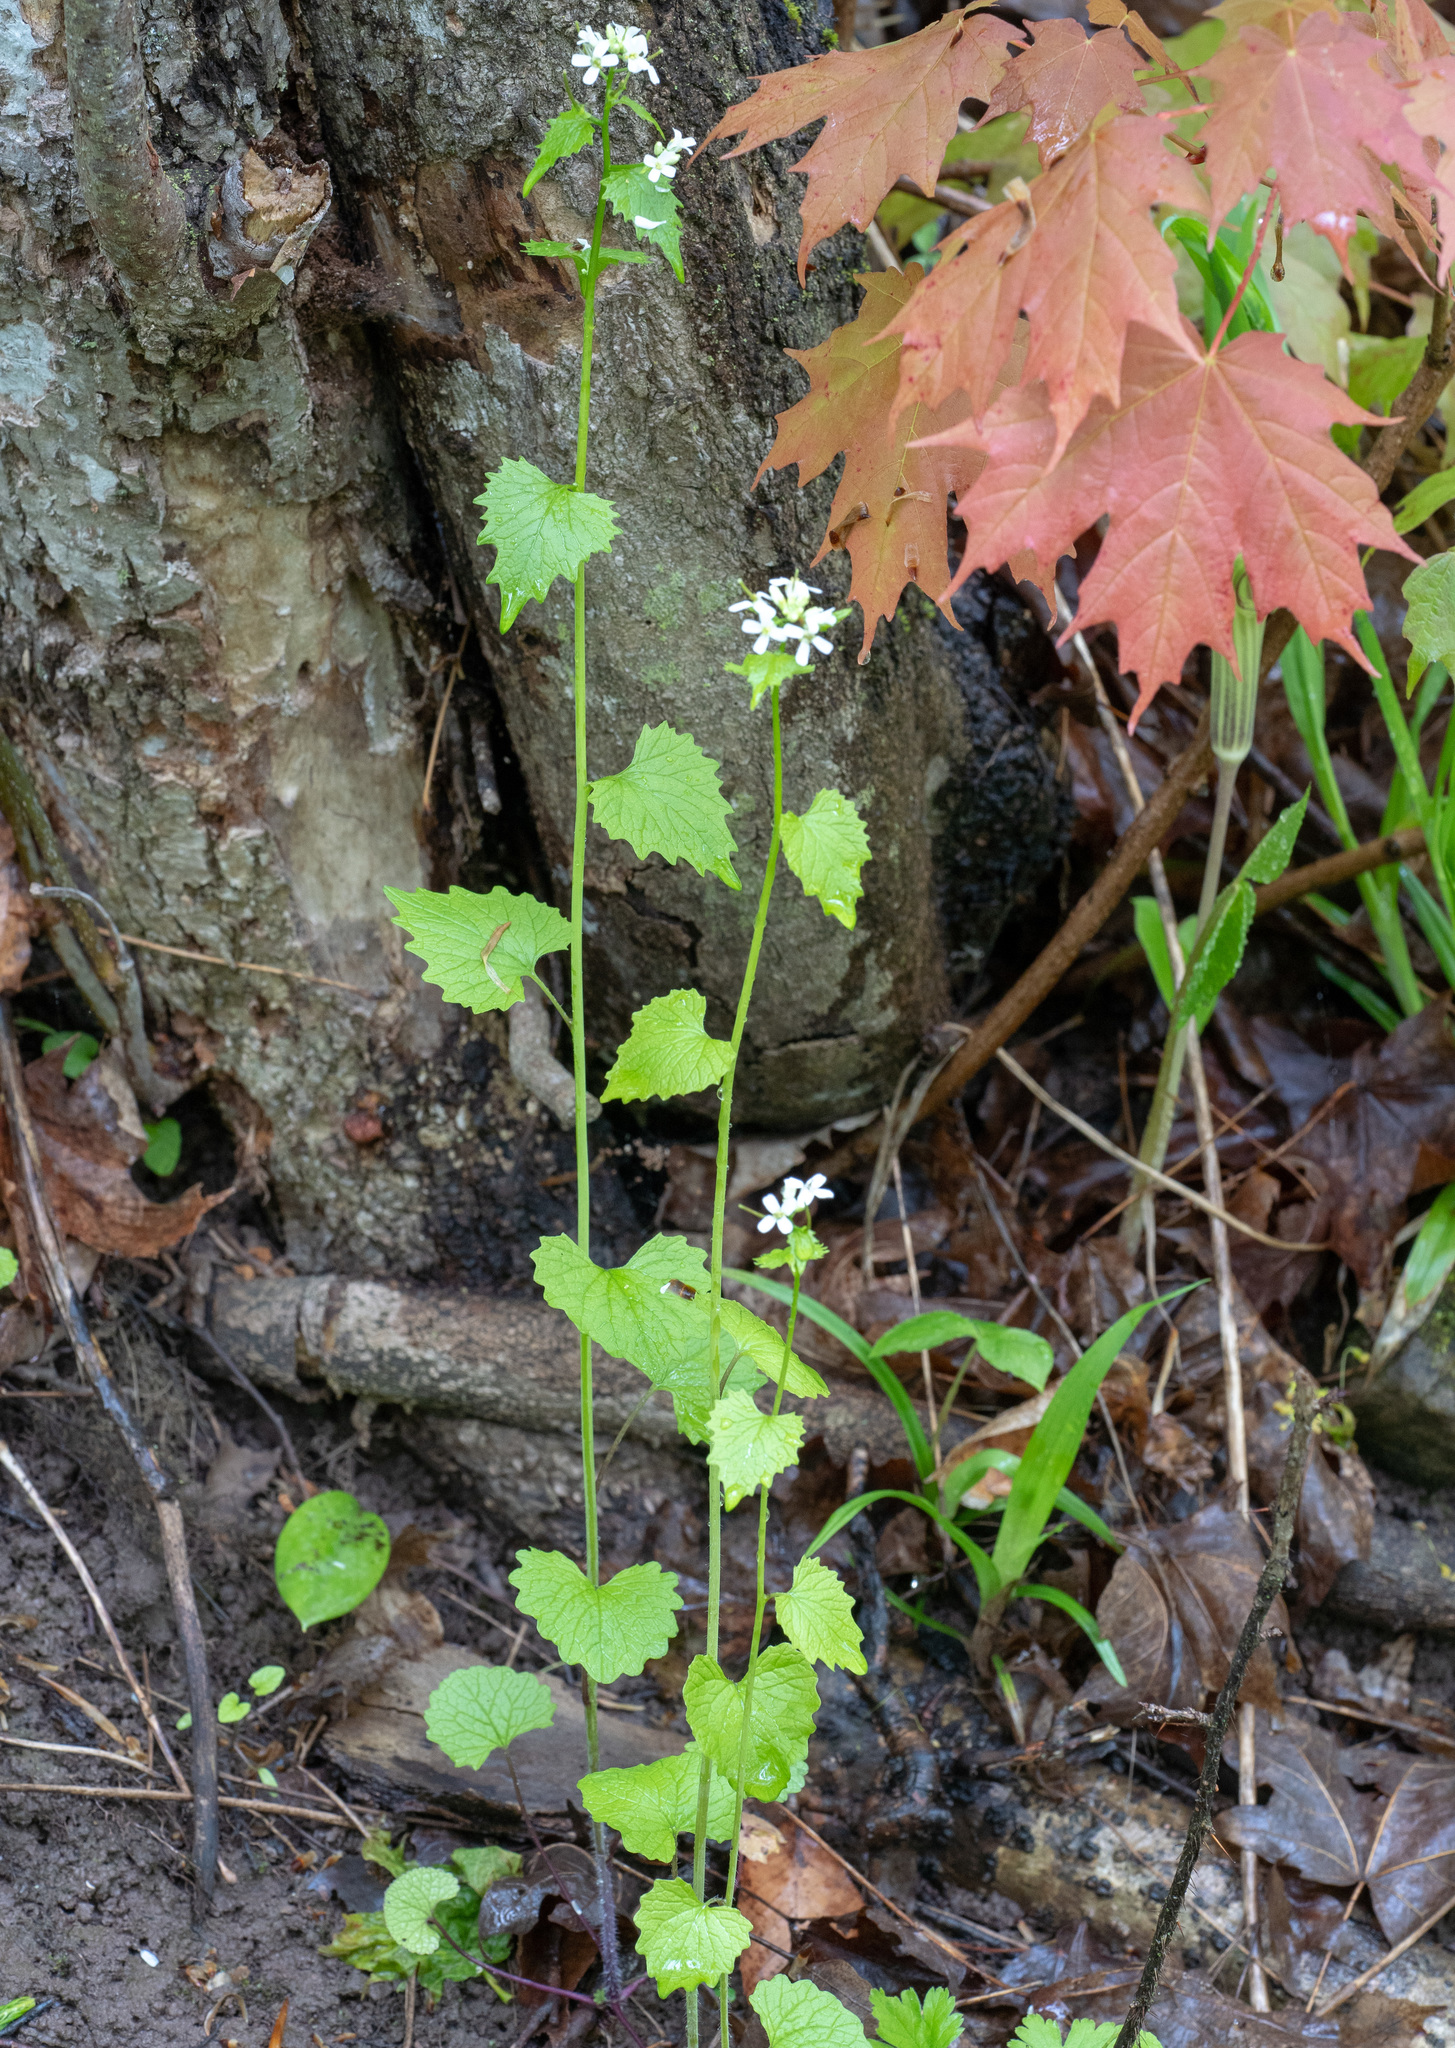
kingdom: Plantae
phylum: Tracheophyta
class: Magnoliopsida
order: Brassicales
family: Brassicaceae
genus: Alliaria
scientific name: Alliaria petiolata
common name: Garlic mustard
